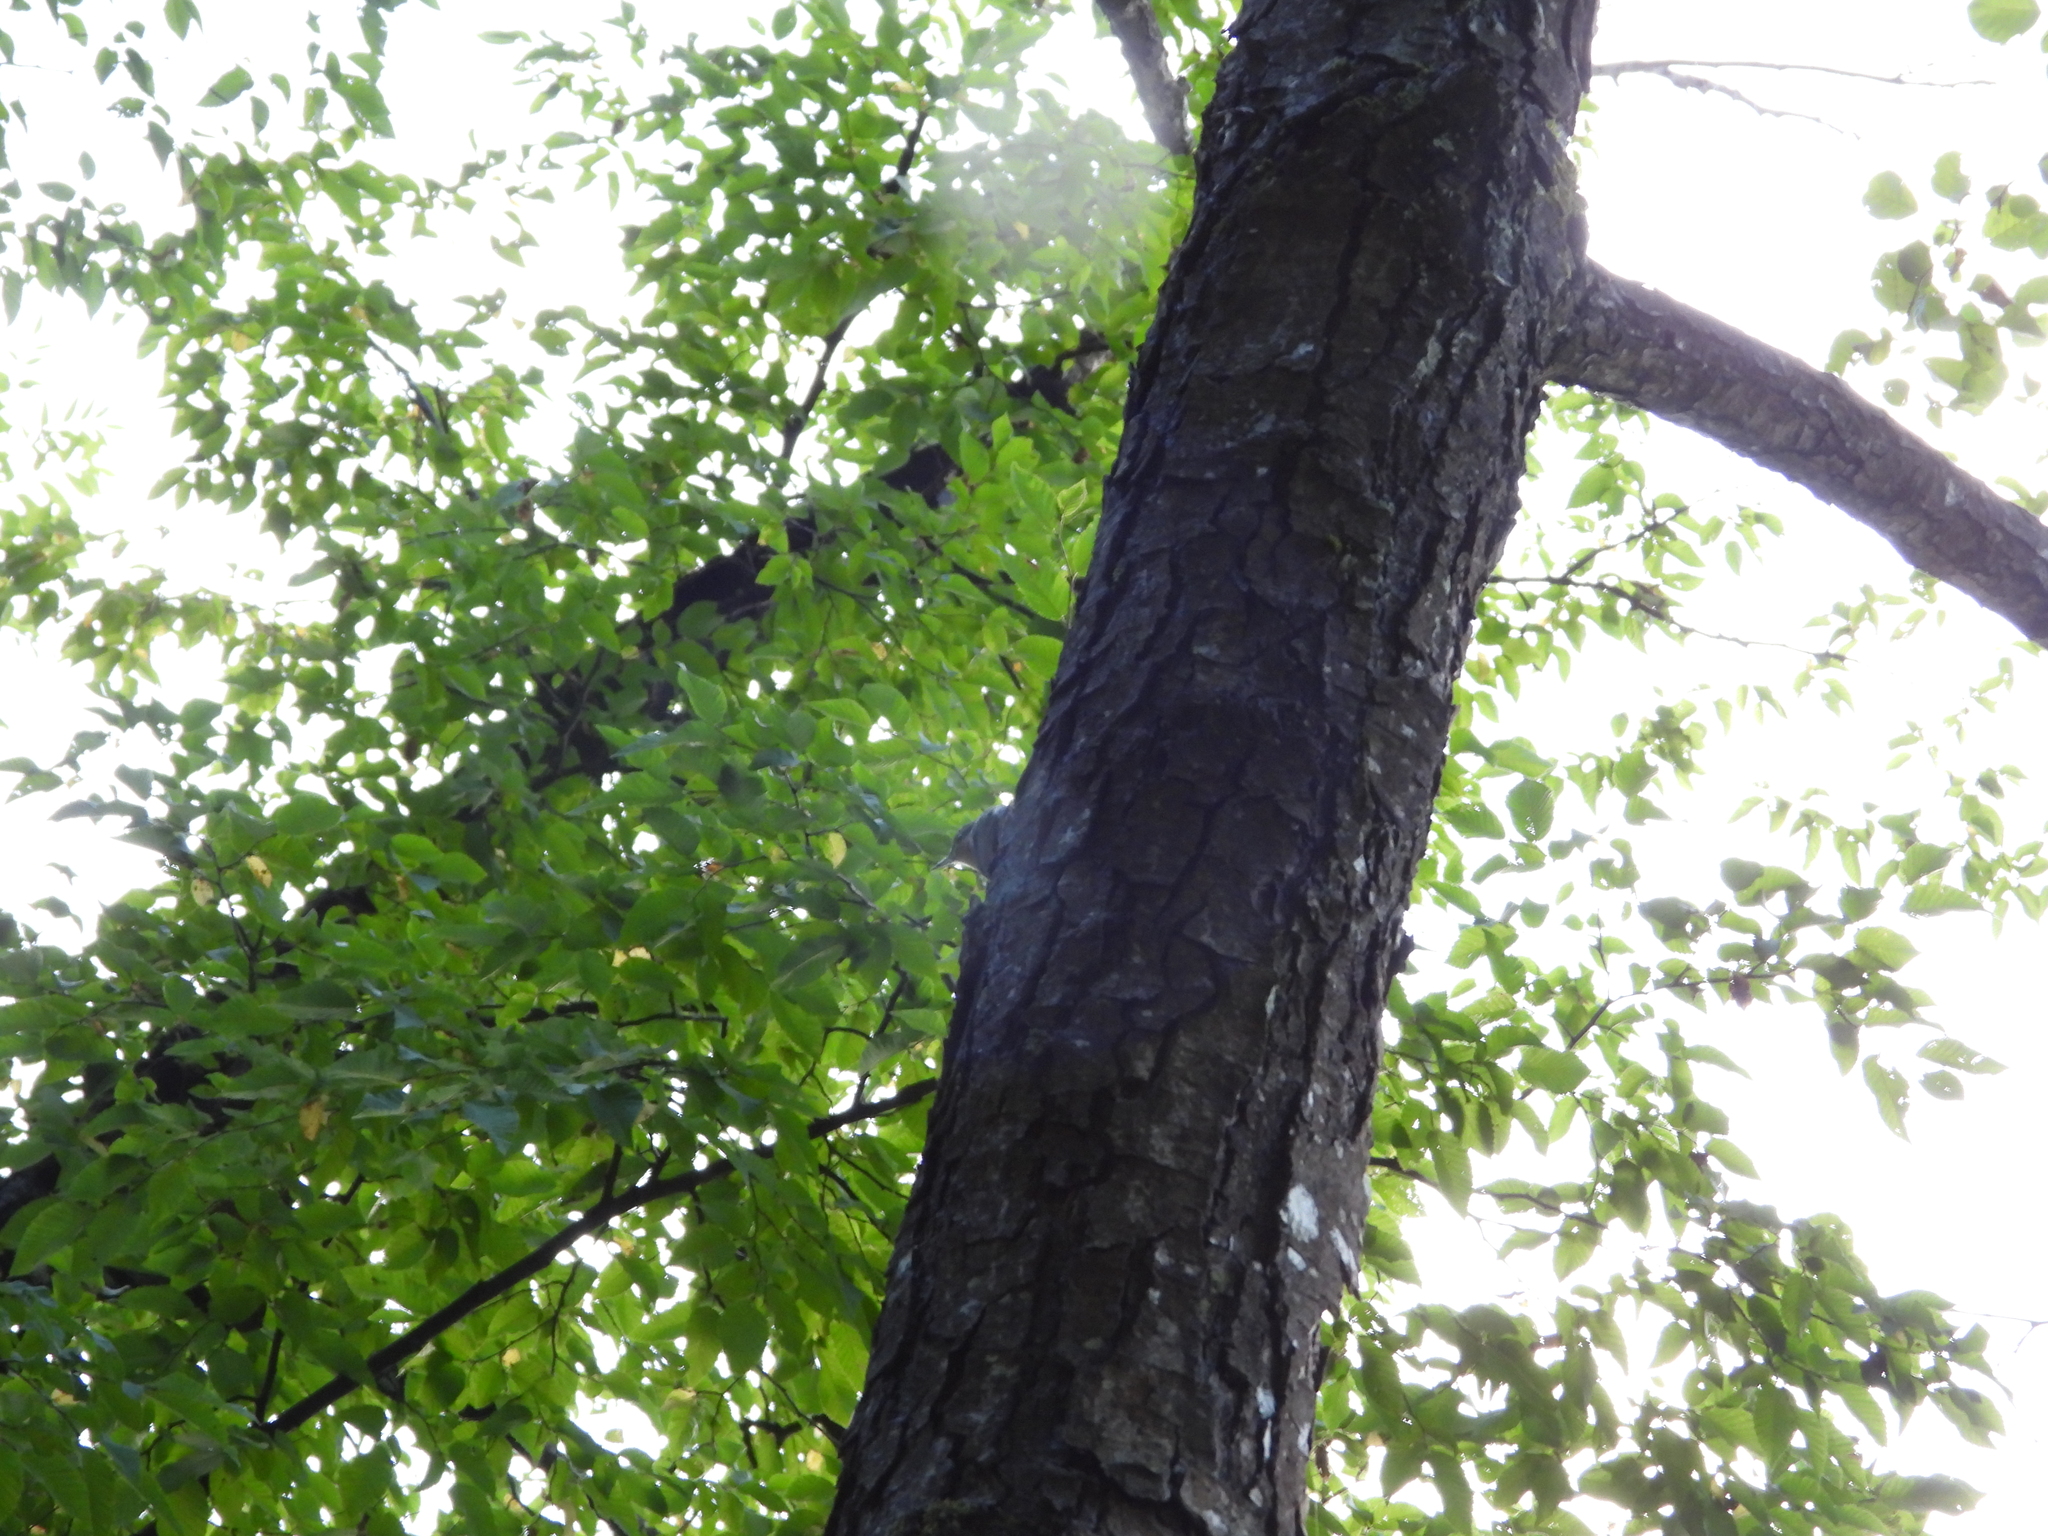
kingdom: Animalia
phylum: Chordata
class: Aves
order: Passeriformes
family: Sittidae
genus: Sitta
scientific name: Sitta europaea
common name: Eurasian nuthatch
